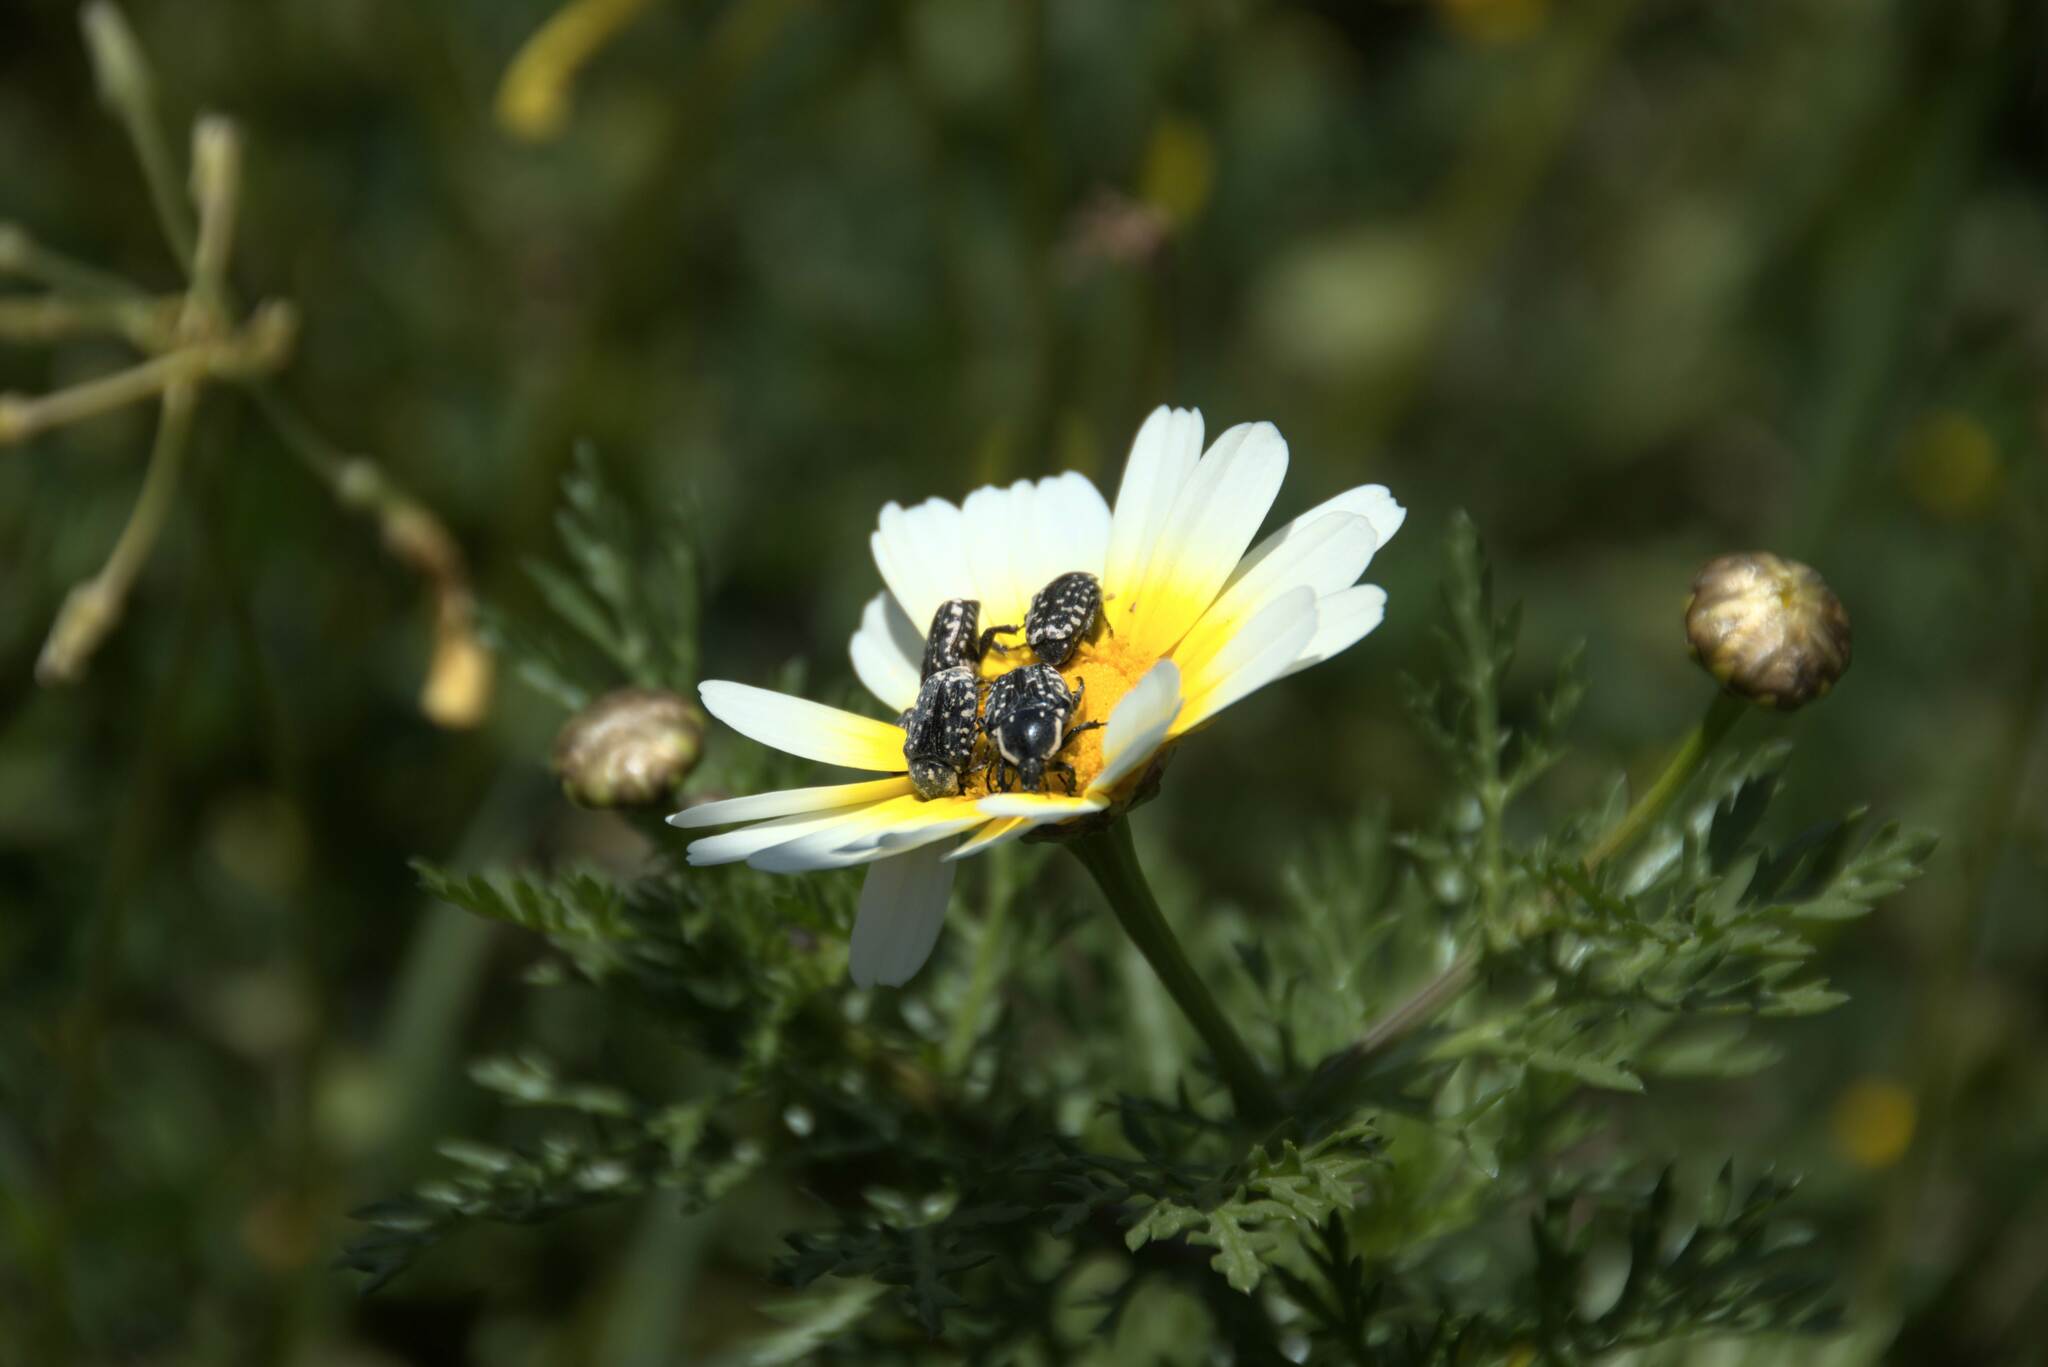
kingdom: Animalia
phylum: Arthropoda
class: Insecta
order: Coleoptera
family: Scarabaeidae
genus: Oxythyrea
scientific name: Oxythyrea cinctella
